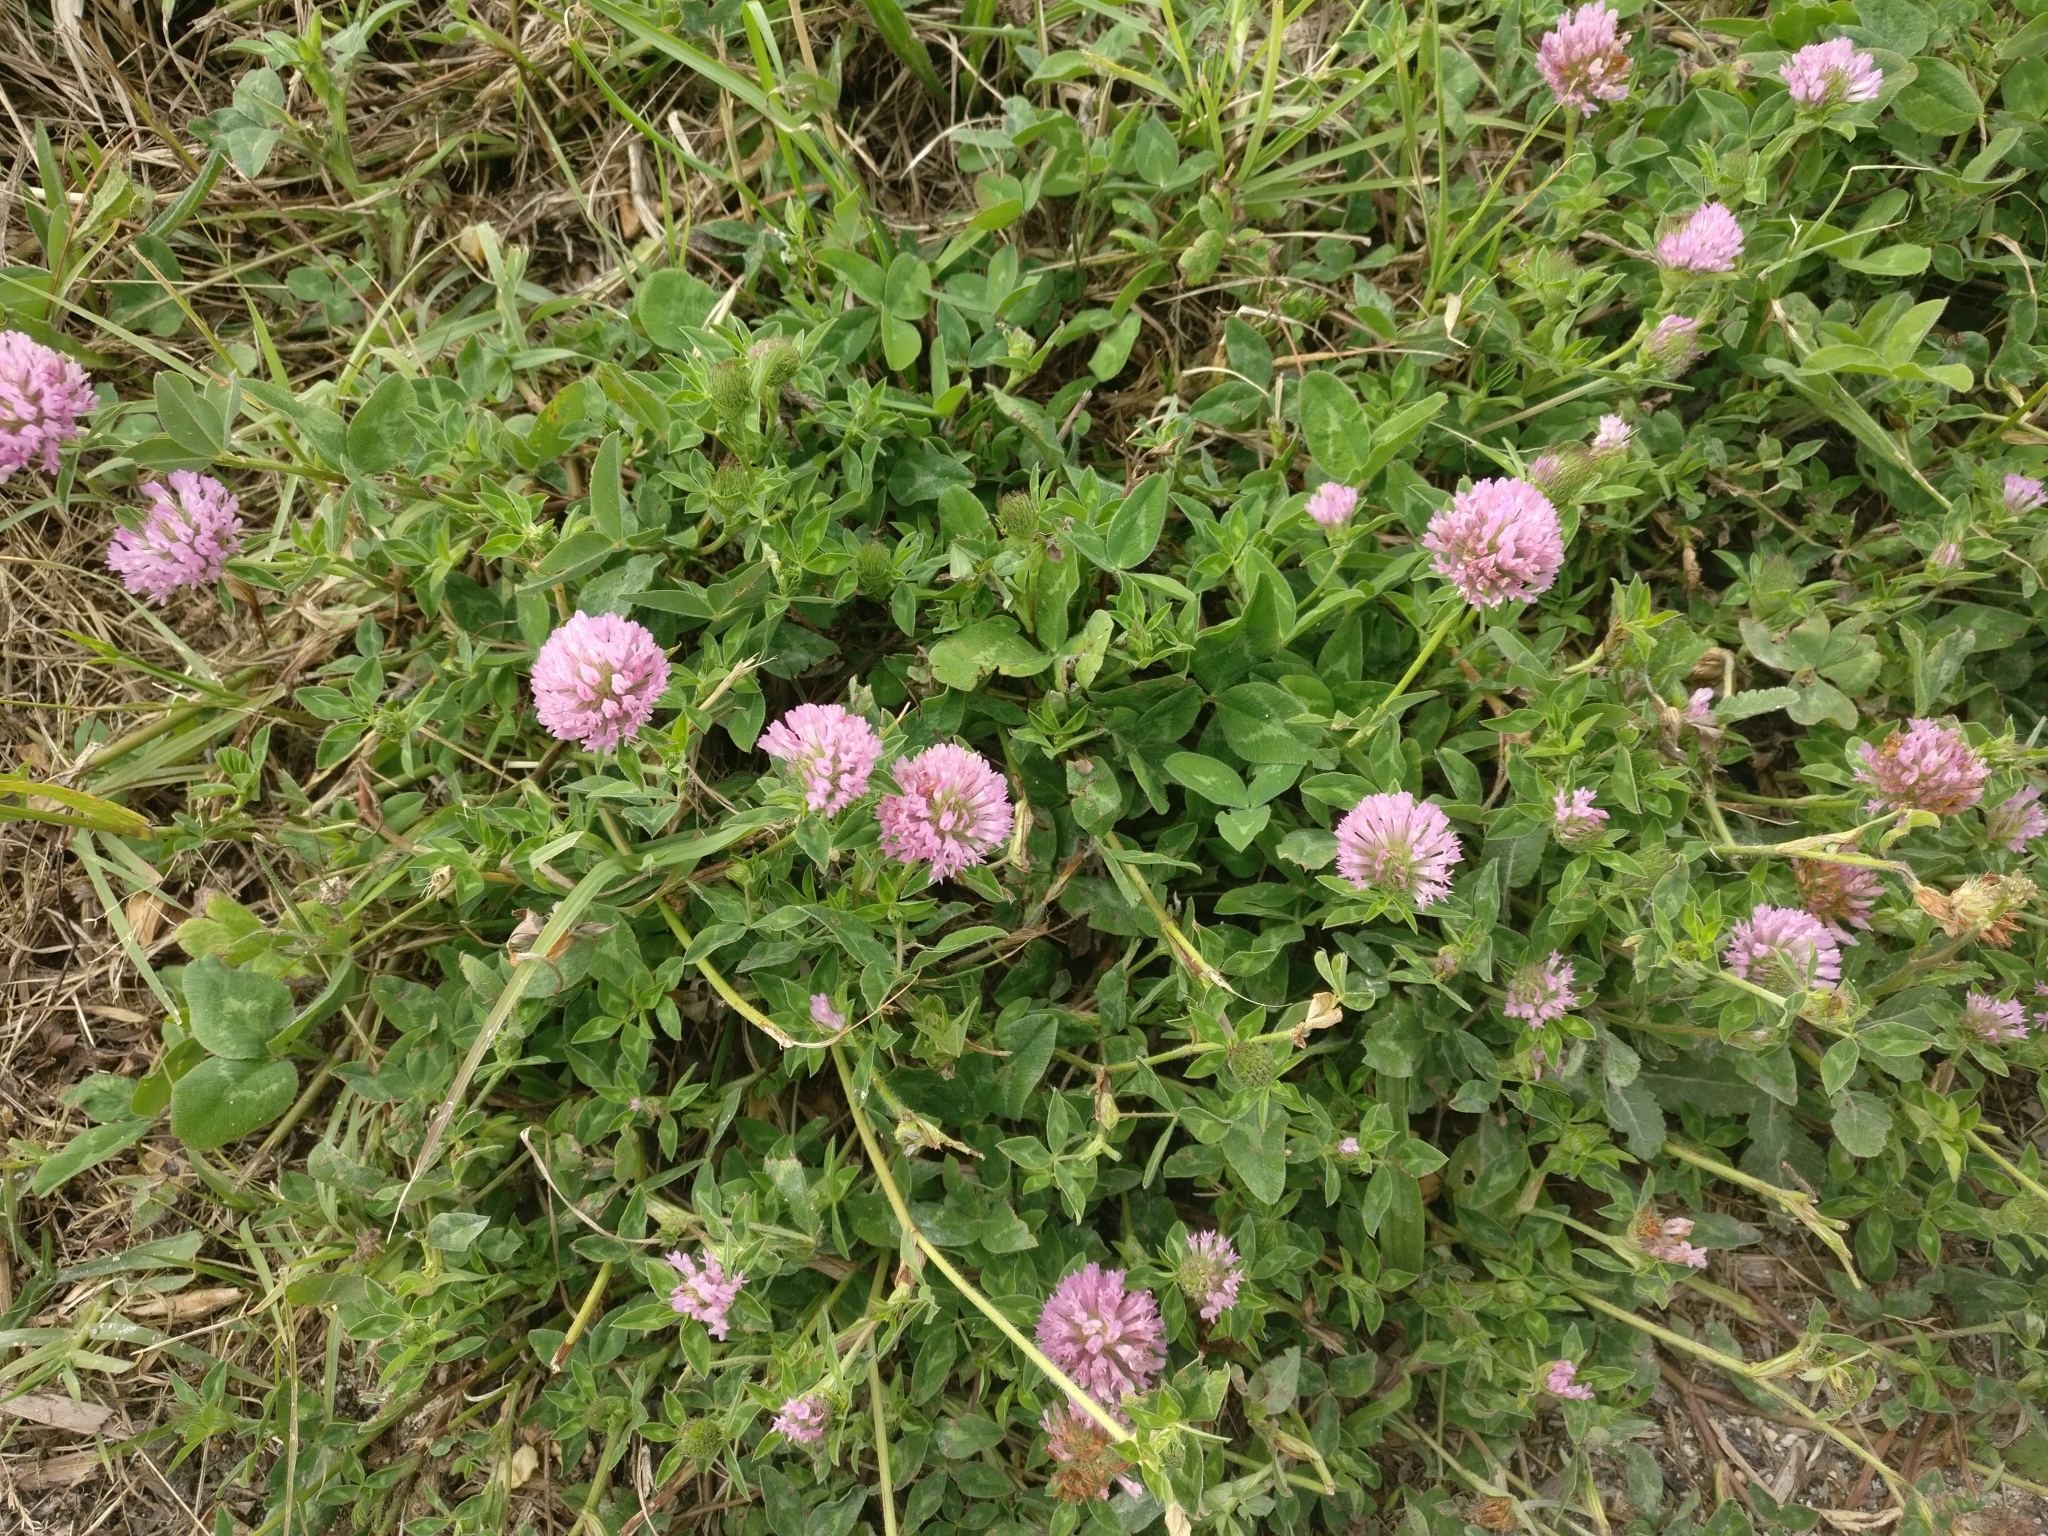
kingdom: Plantae
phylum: Tracheophyta
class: Magnoliopsida
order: Fabales
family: Fabaceae
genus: Trifolium
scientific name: Trifolium pratense
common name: Red clover
